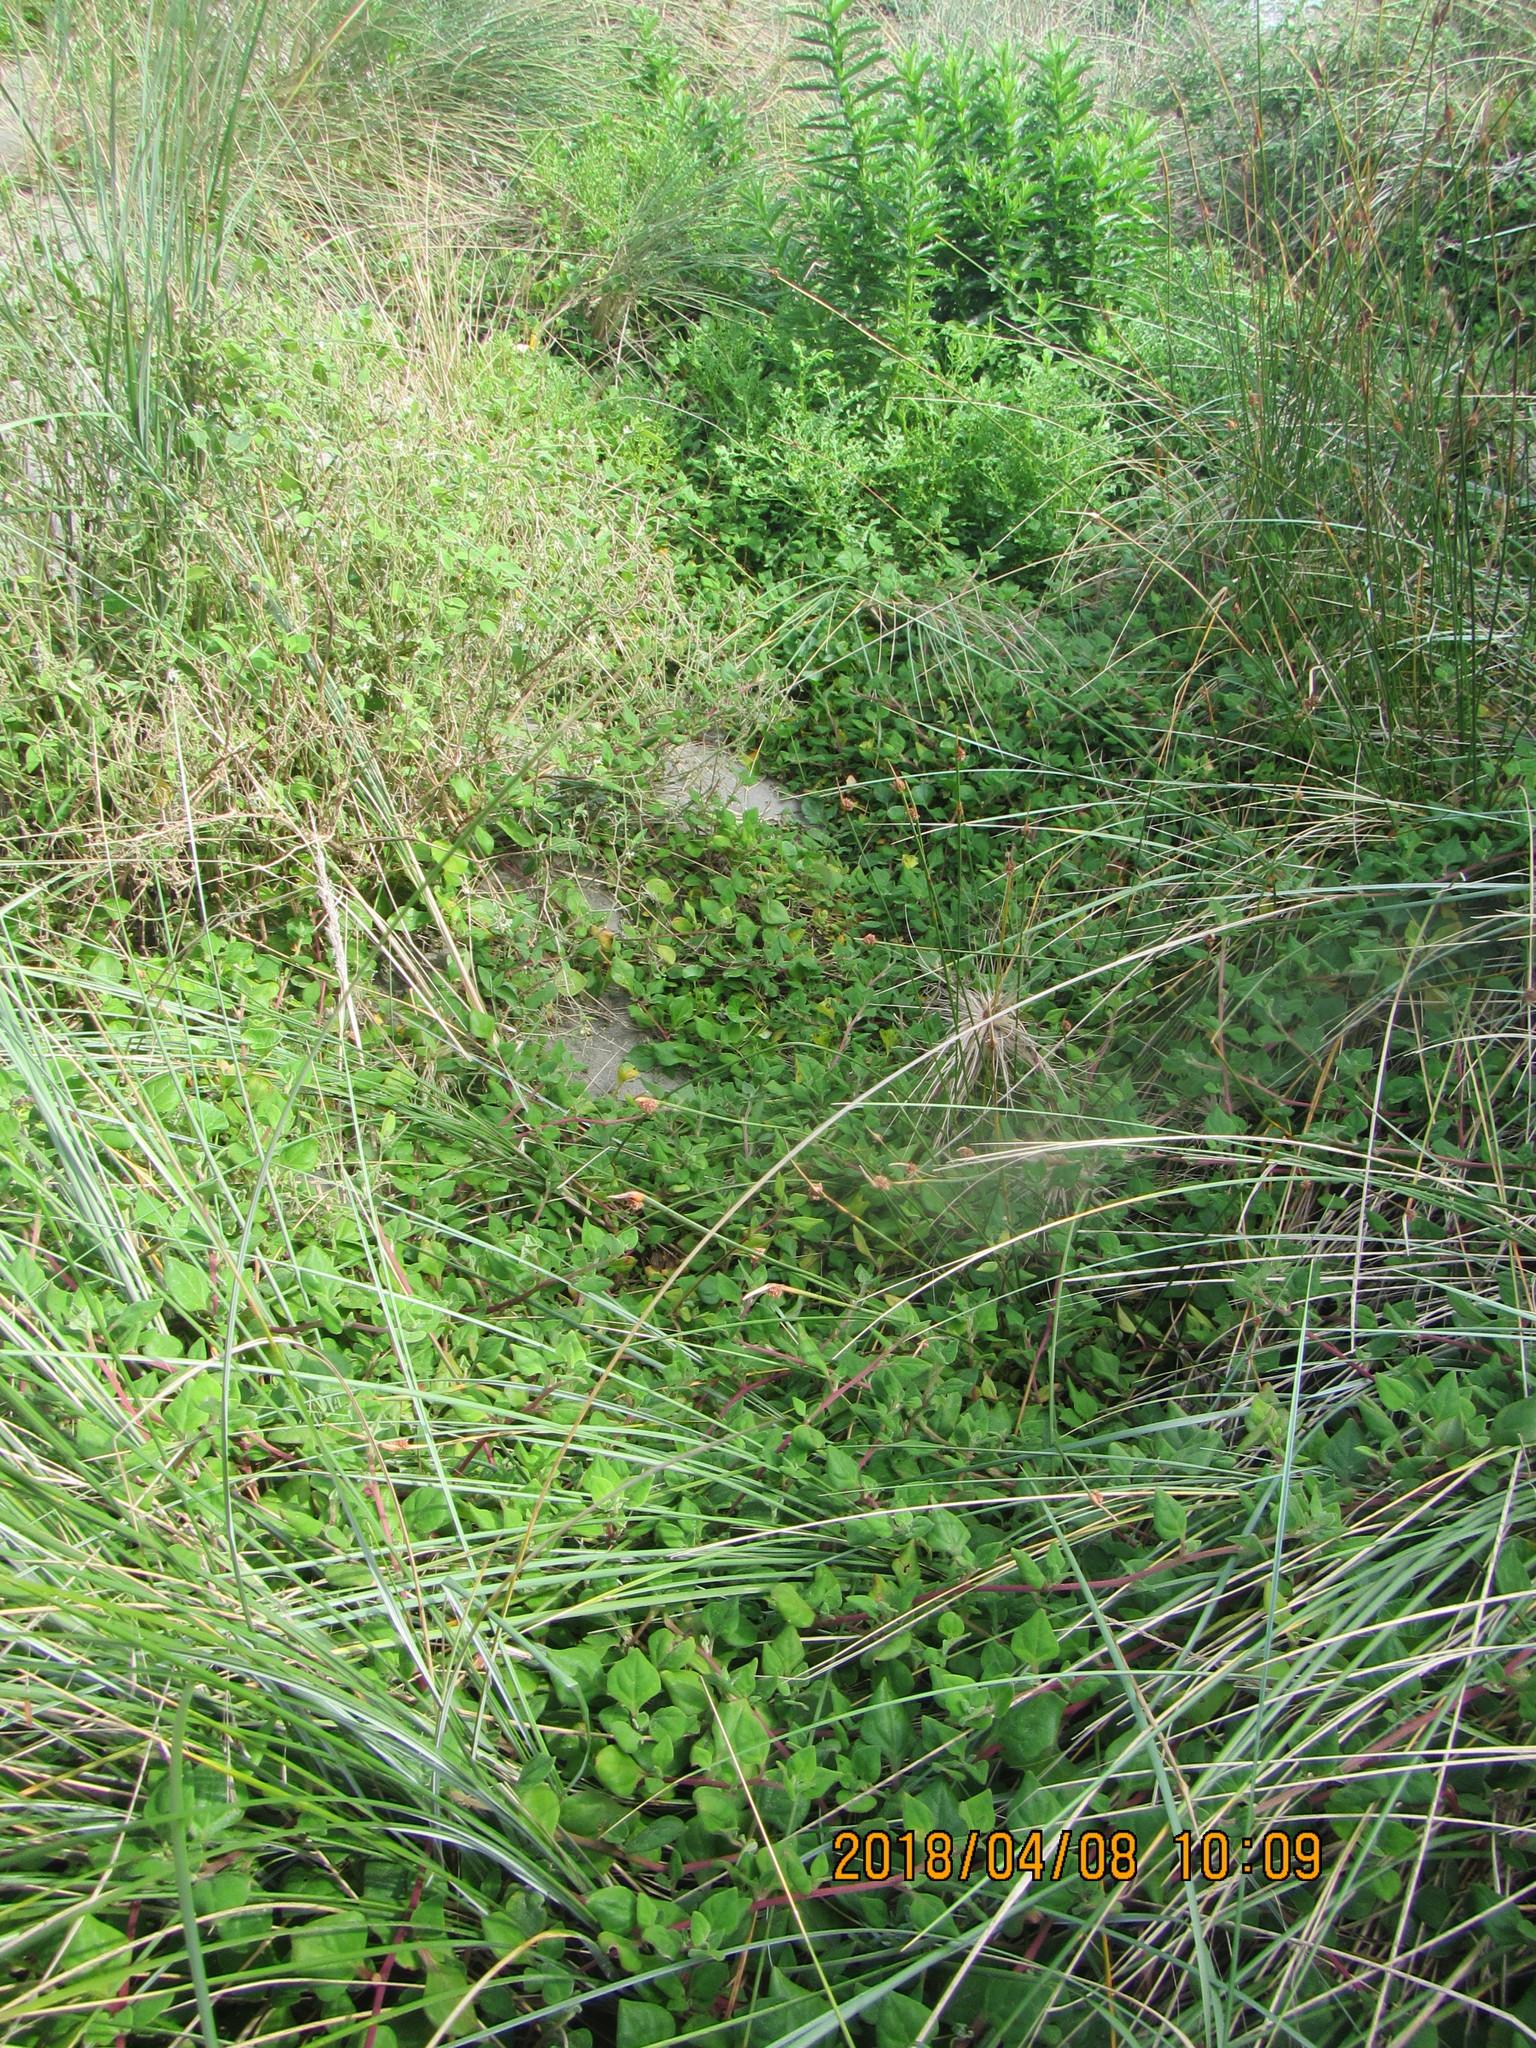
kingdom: Plantae
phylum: Tracheophyta
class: Magnoliopsida
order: Caryophyllales
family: Aizoaceae
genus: Tetragonia
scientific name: Tetragonia implexicoma
